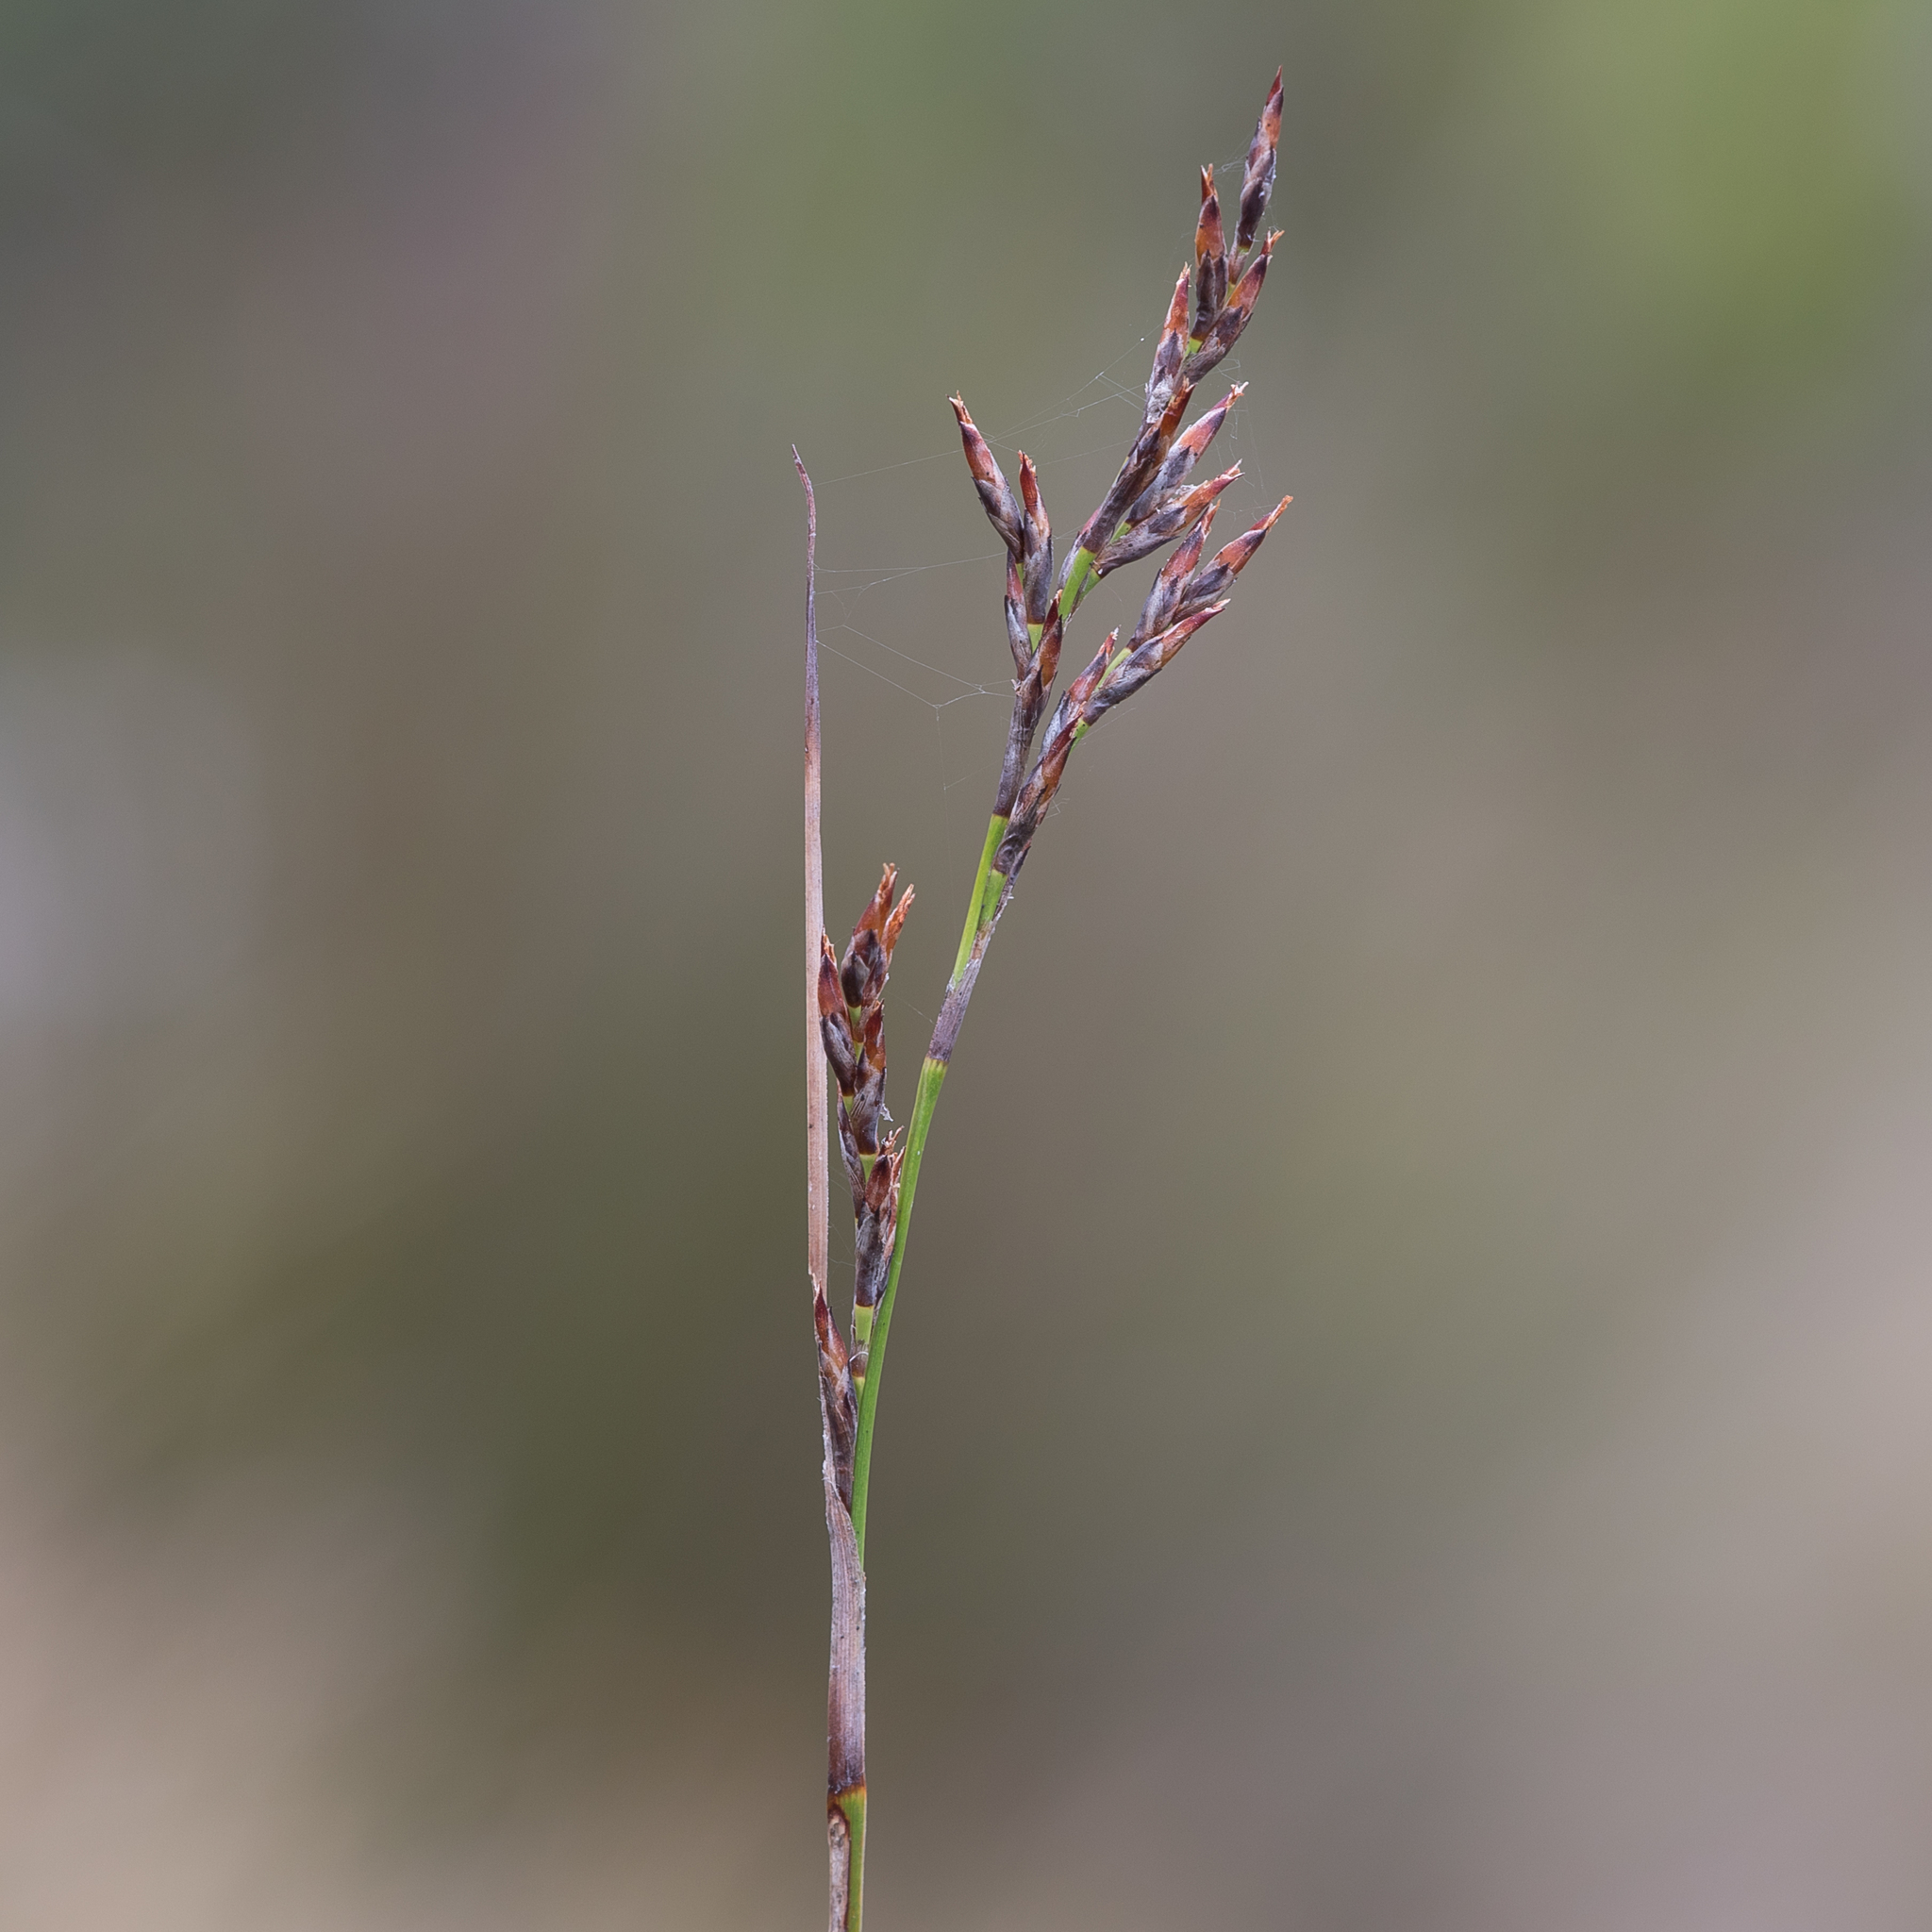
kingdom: Plantae
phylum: Tracheophyta
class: Liliopsida
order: Poales
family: Cyperaceae
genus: Lepidosperma
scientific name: Lepidosperma semiteres
